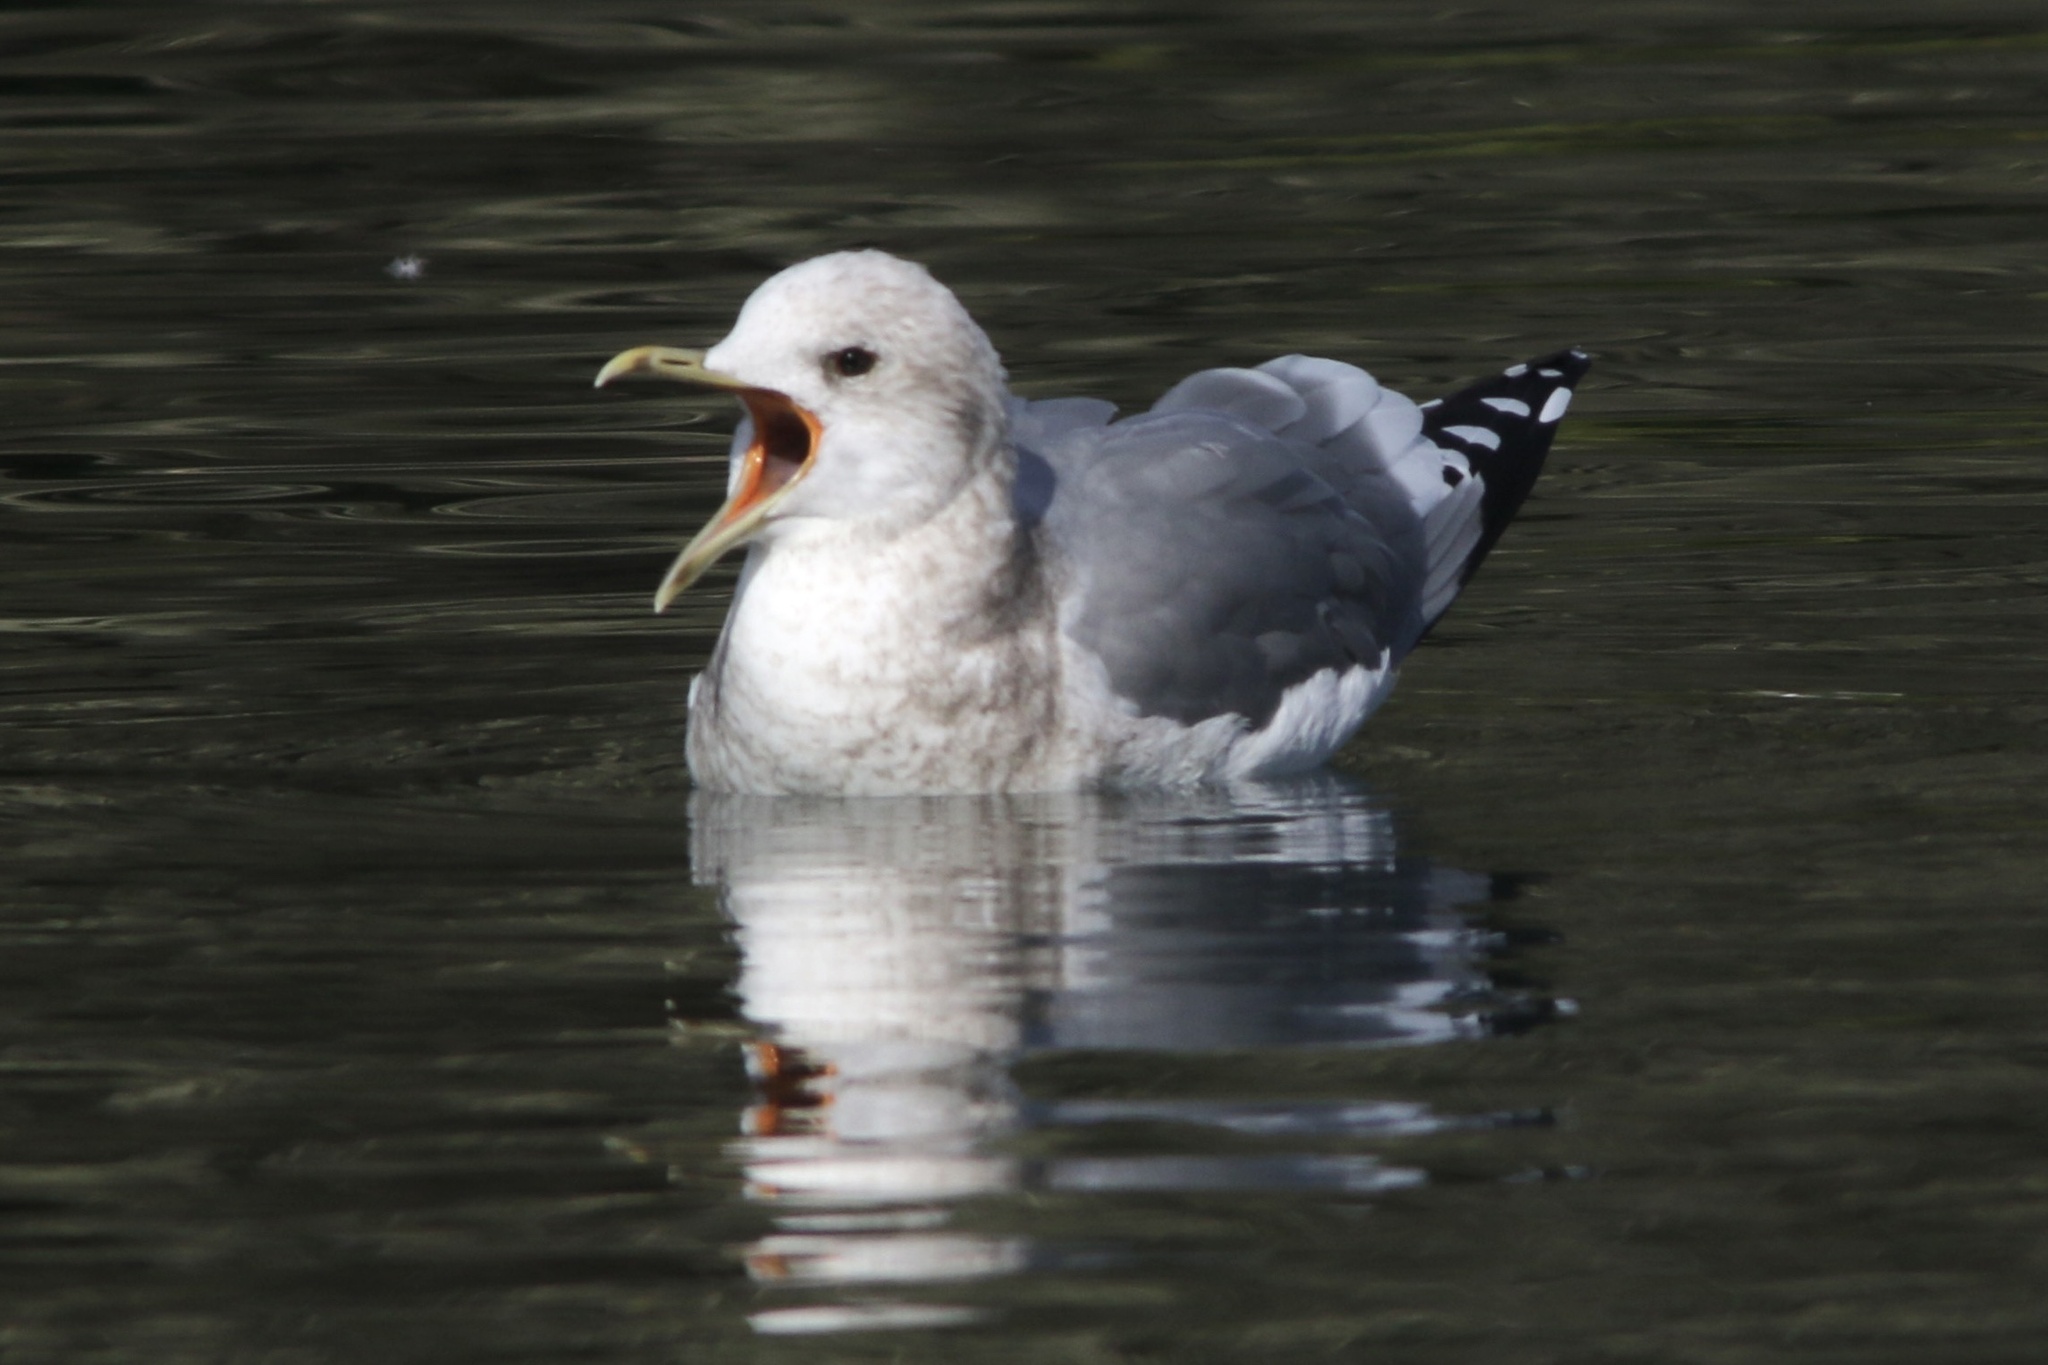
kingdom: Animalia
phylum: Chordata
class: Aves
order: Charadriiformes
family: Laridae
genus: Larus
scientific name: Larus brachyrhynchus
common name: Short-billed gull
